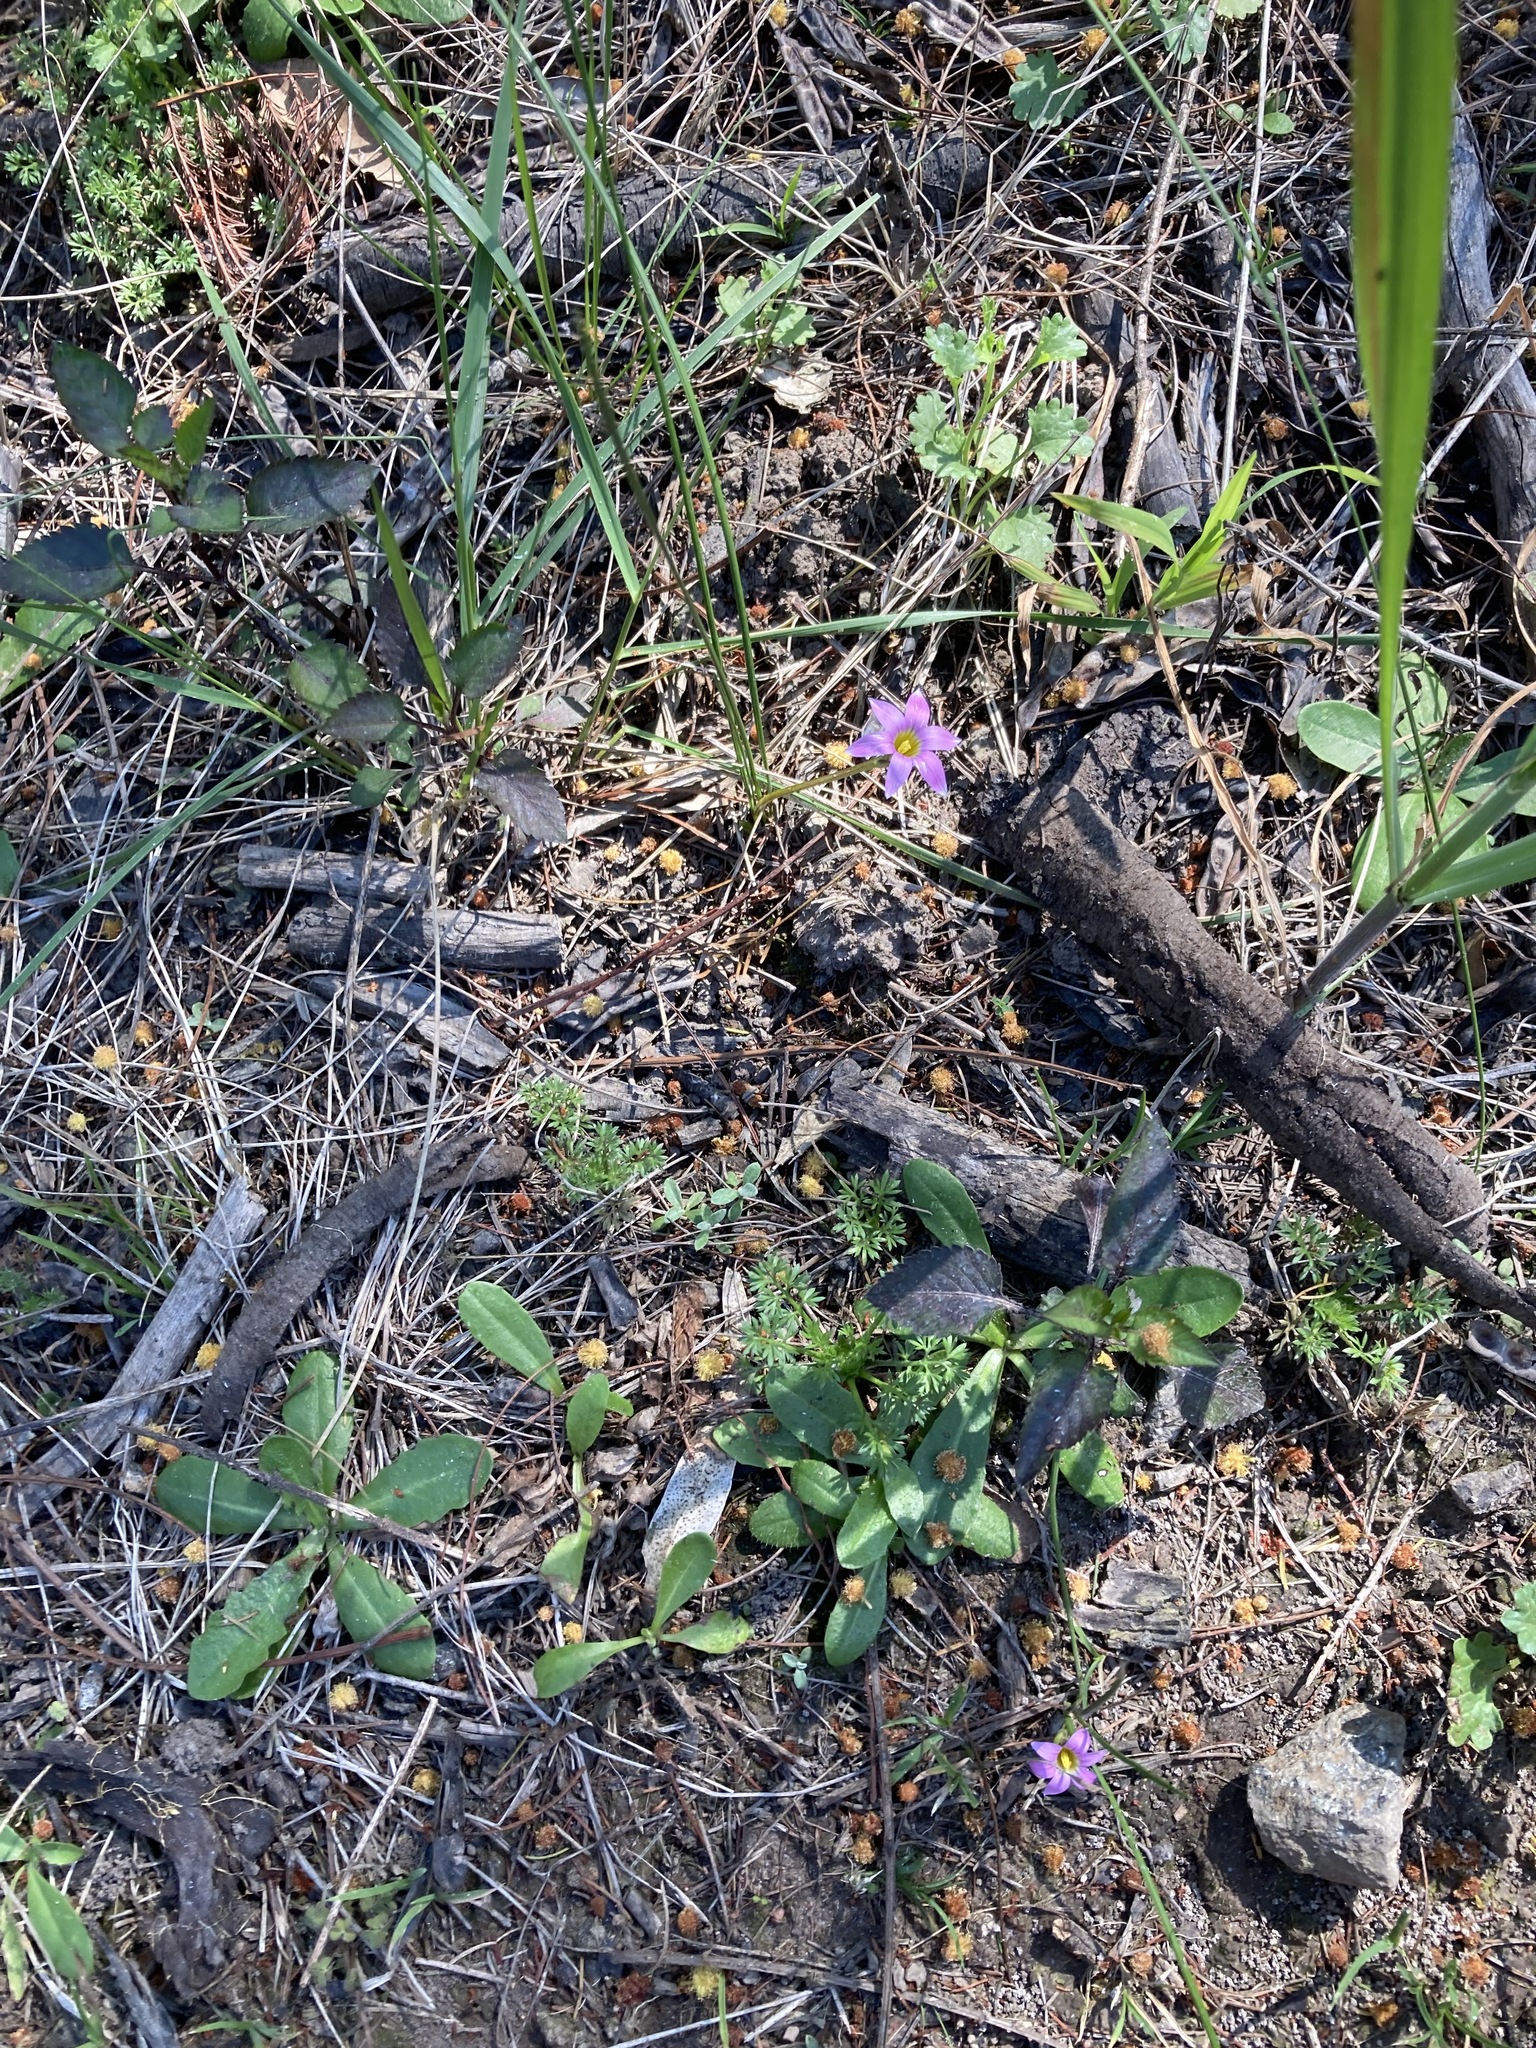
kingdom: Plantae
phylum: Tracheophyta
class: Liliopsida
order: Asparagales
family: Iridaceae
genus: Romulea
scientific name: Romulea rosea
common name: Oniongrass
